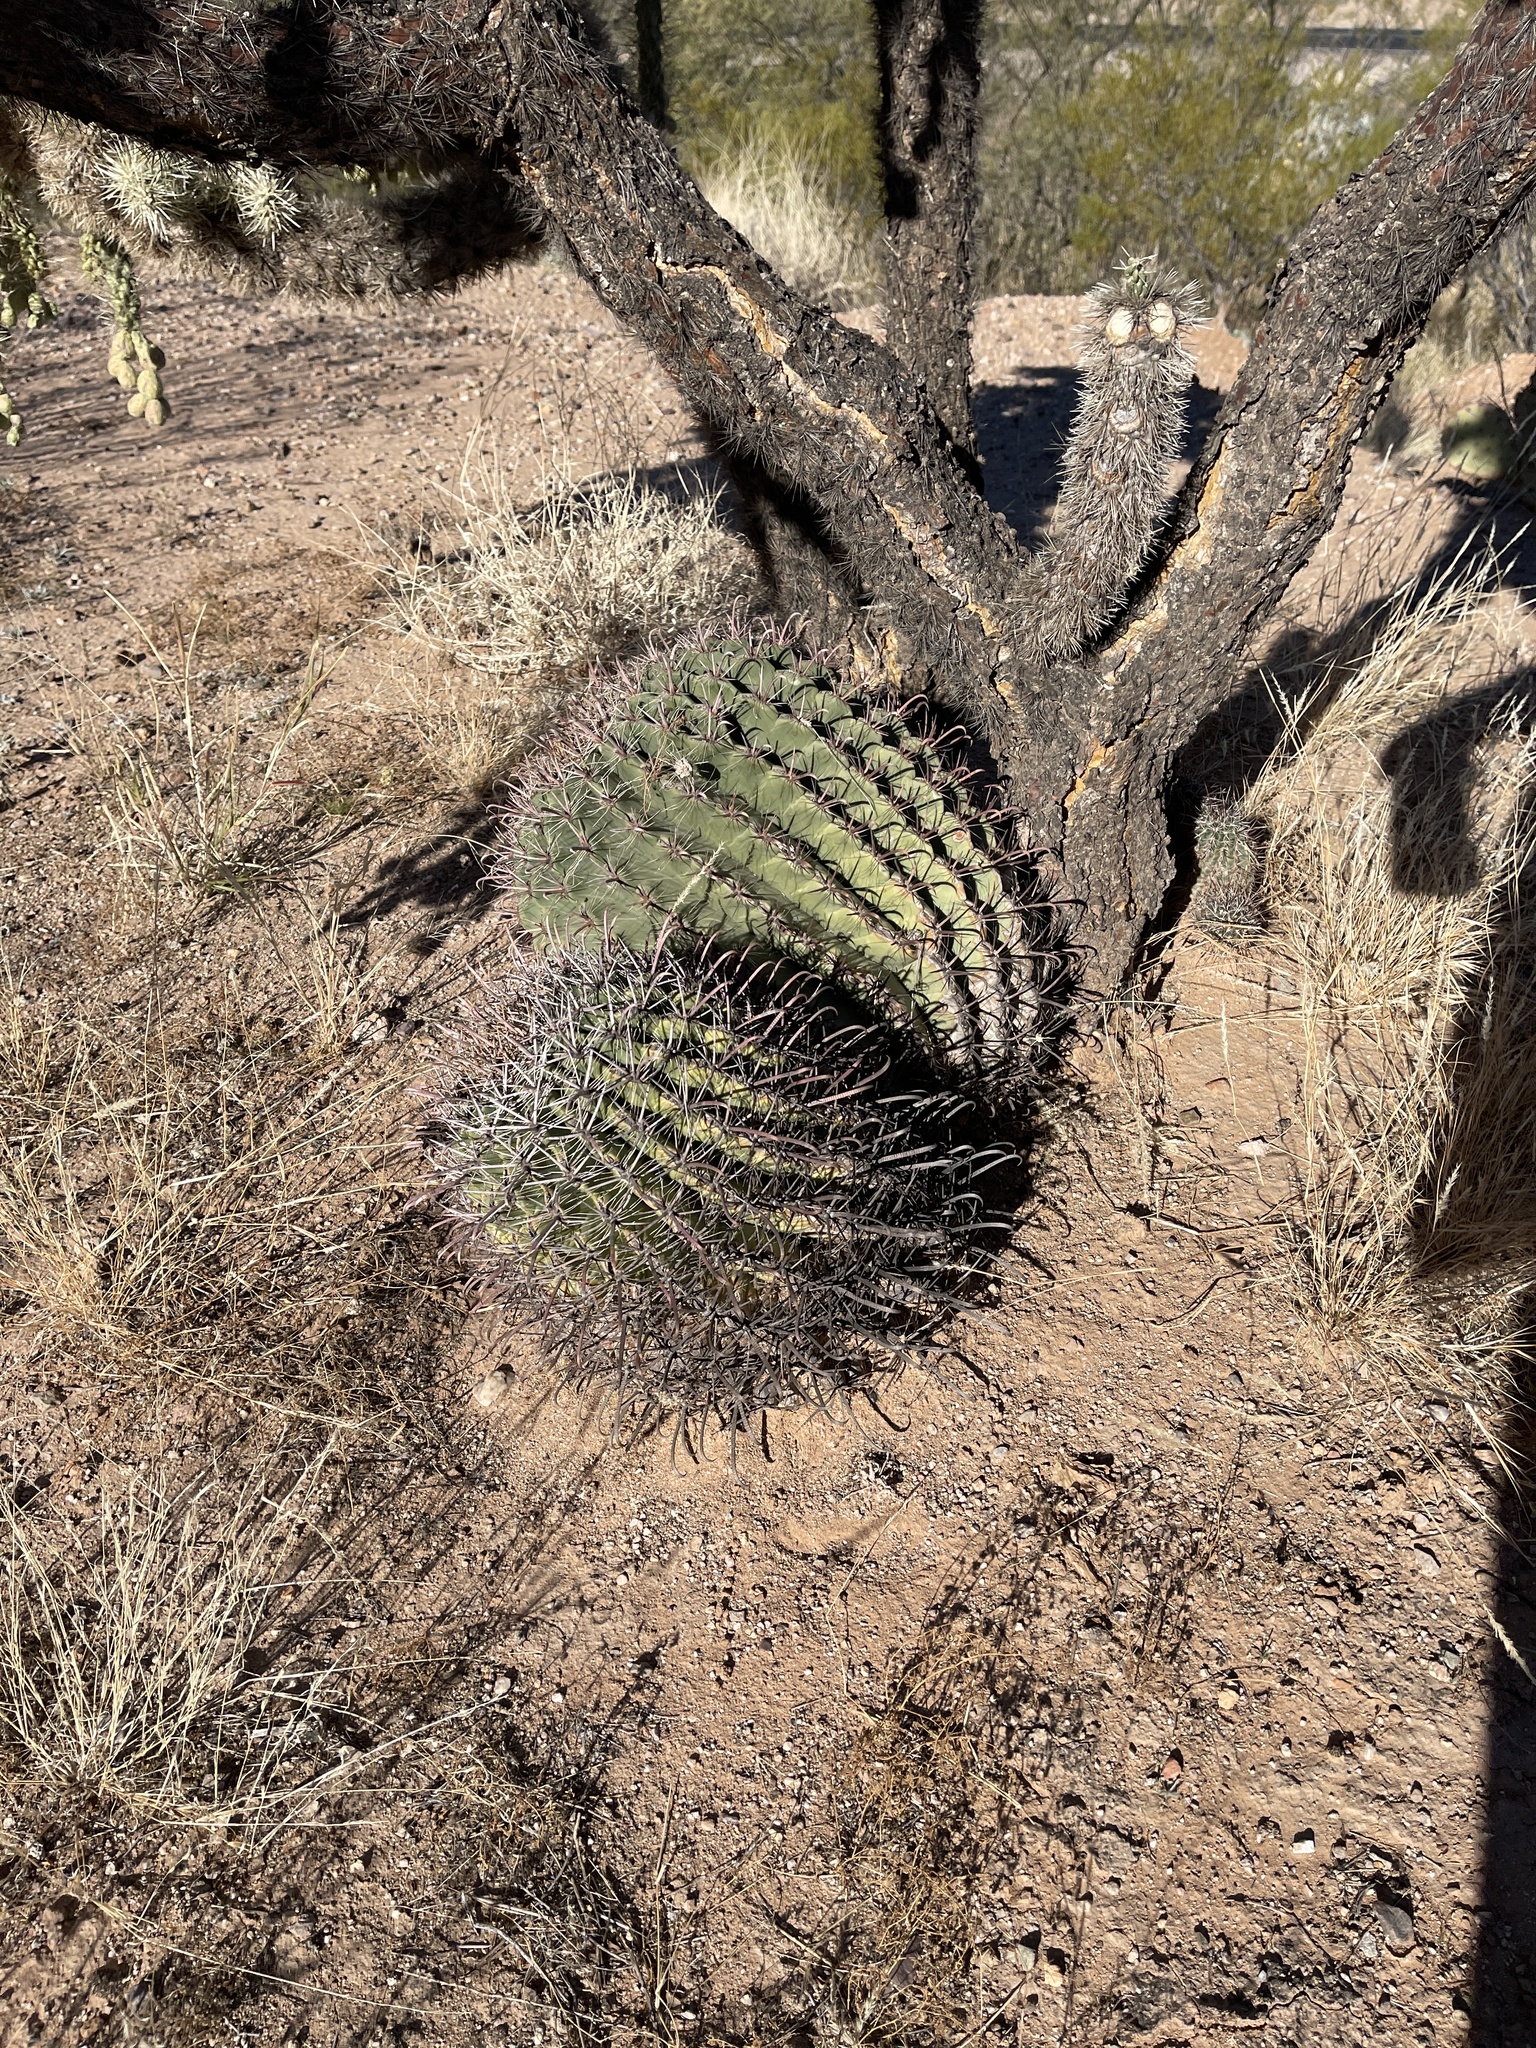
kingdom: Plantae
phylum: Tracheophyta
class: Magnoliopsida
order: Caryophyllales
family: Cactaceae
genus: Ferocactus
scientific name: Ferocactus wislizeni
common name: Candy barrel cactus
